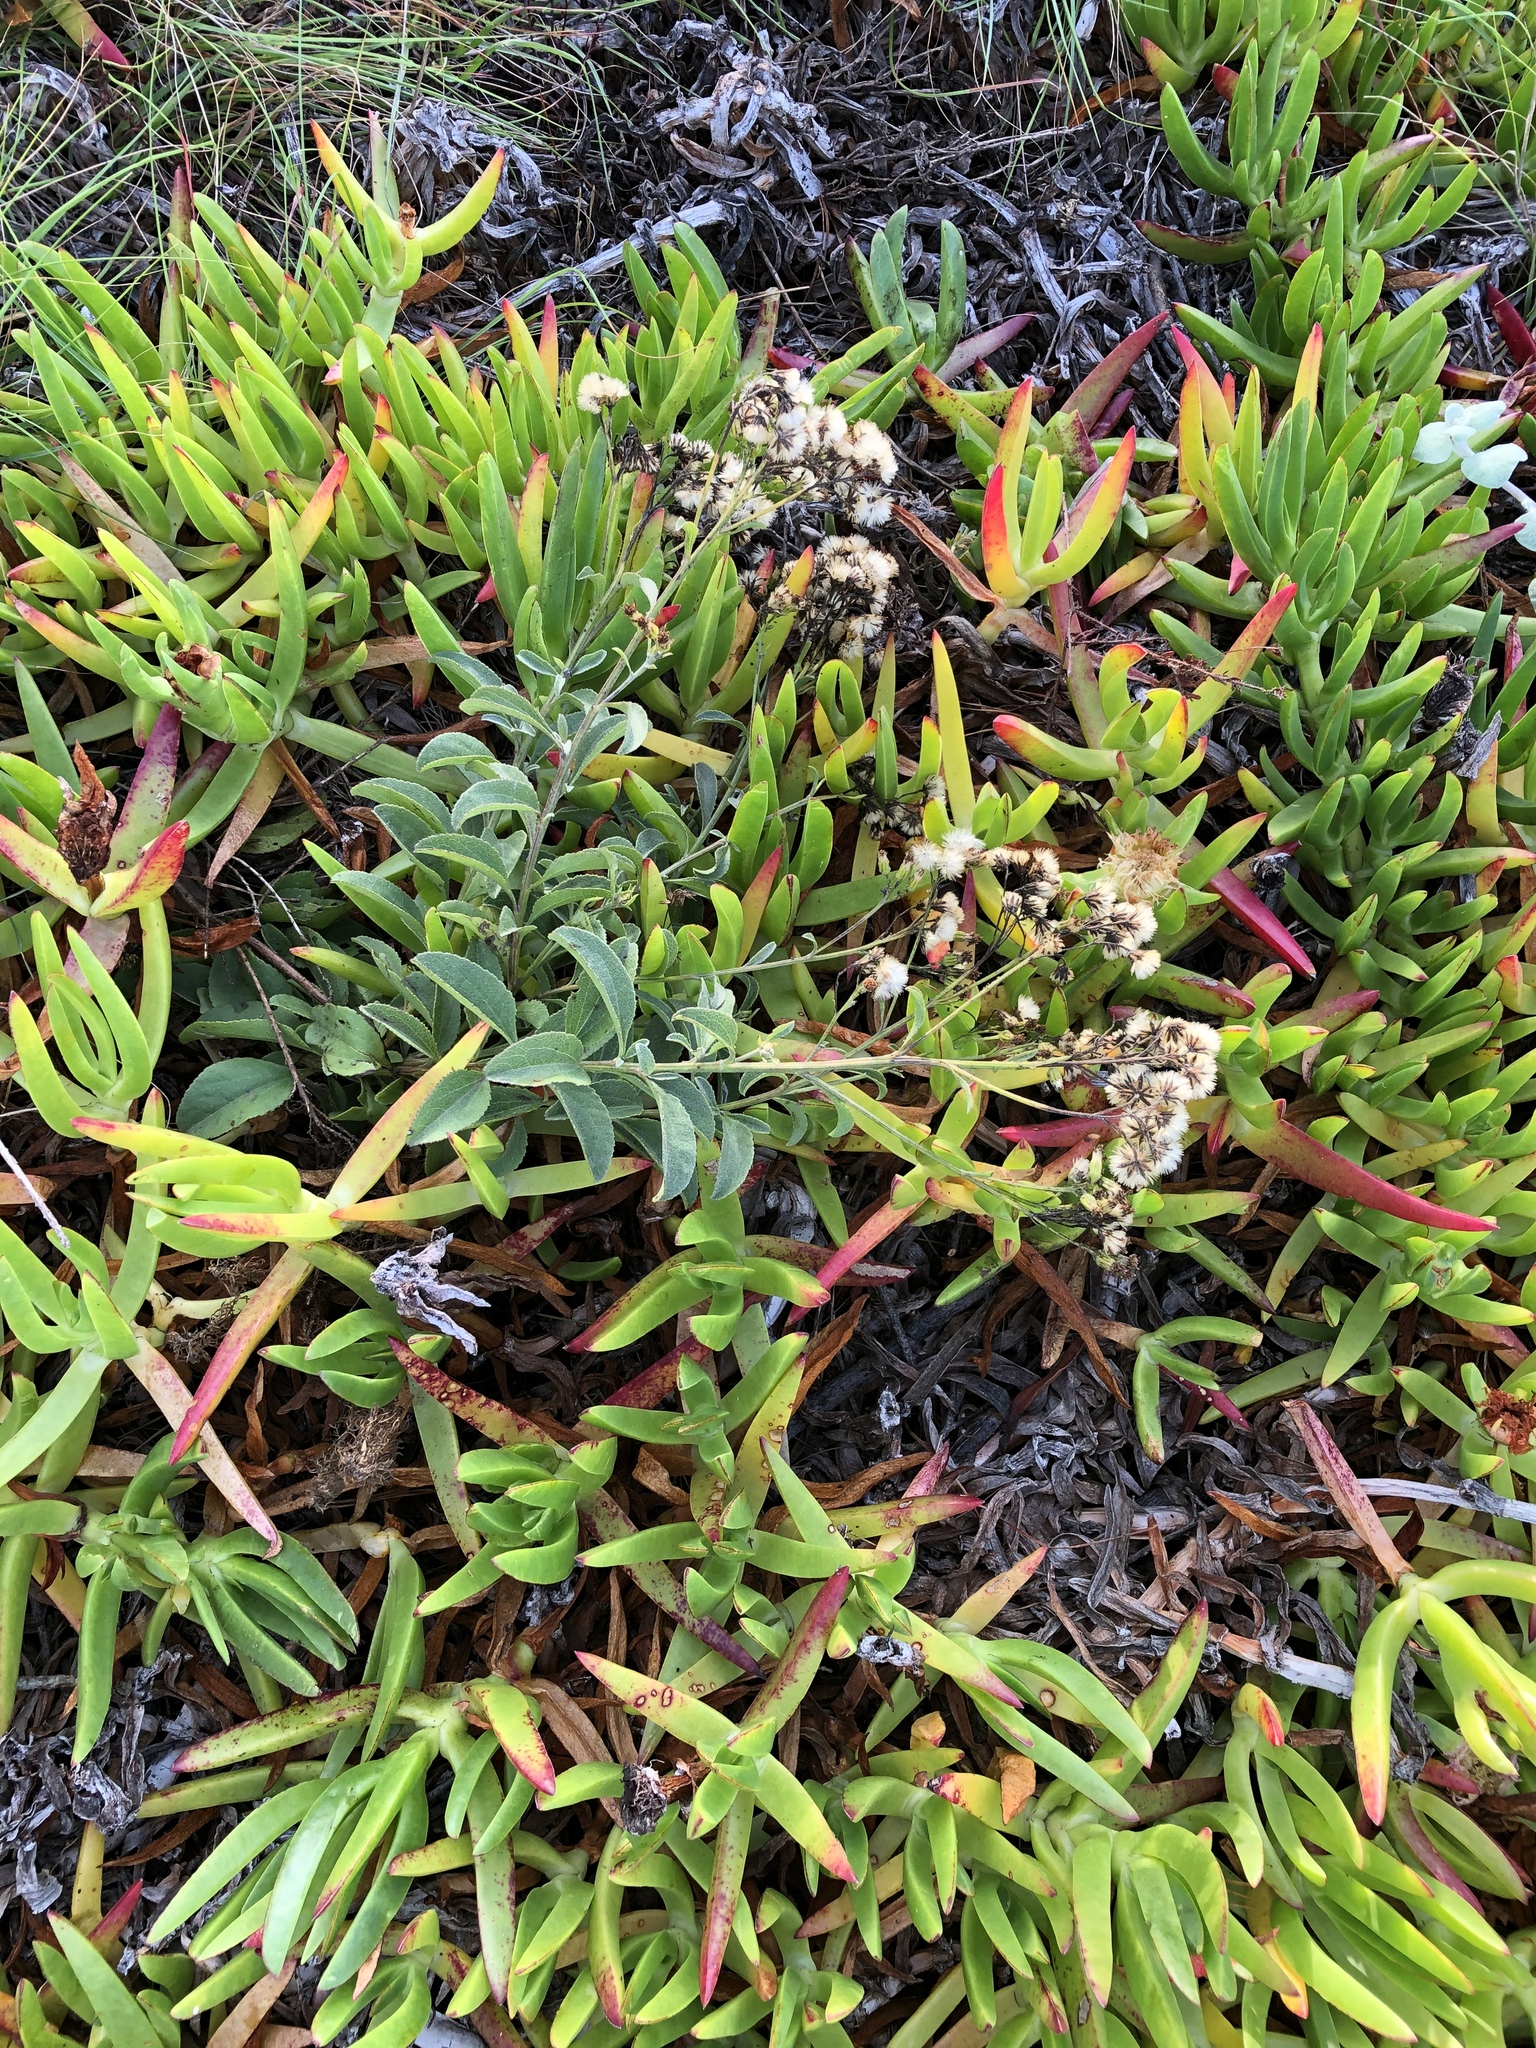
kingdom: Plantae
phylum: Tracheophyta
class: Magnoliopsida
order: Asterales
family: Asteraceae
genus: Senecio
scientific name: Senecio crenatus
